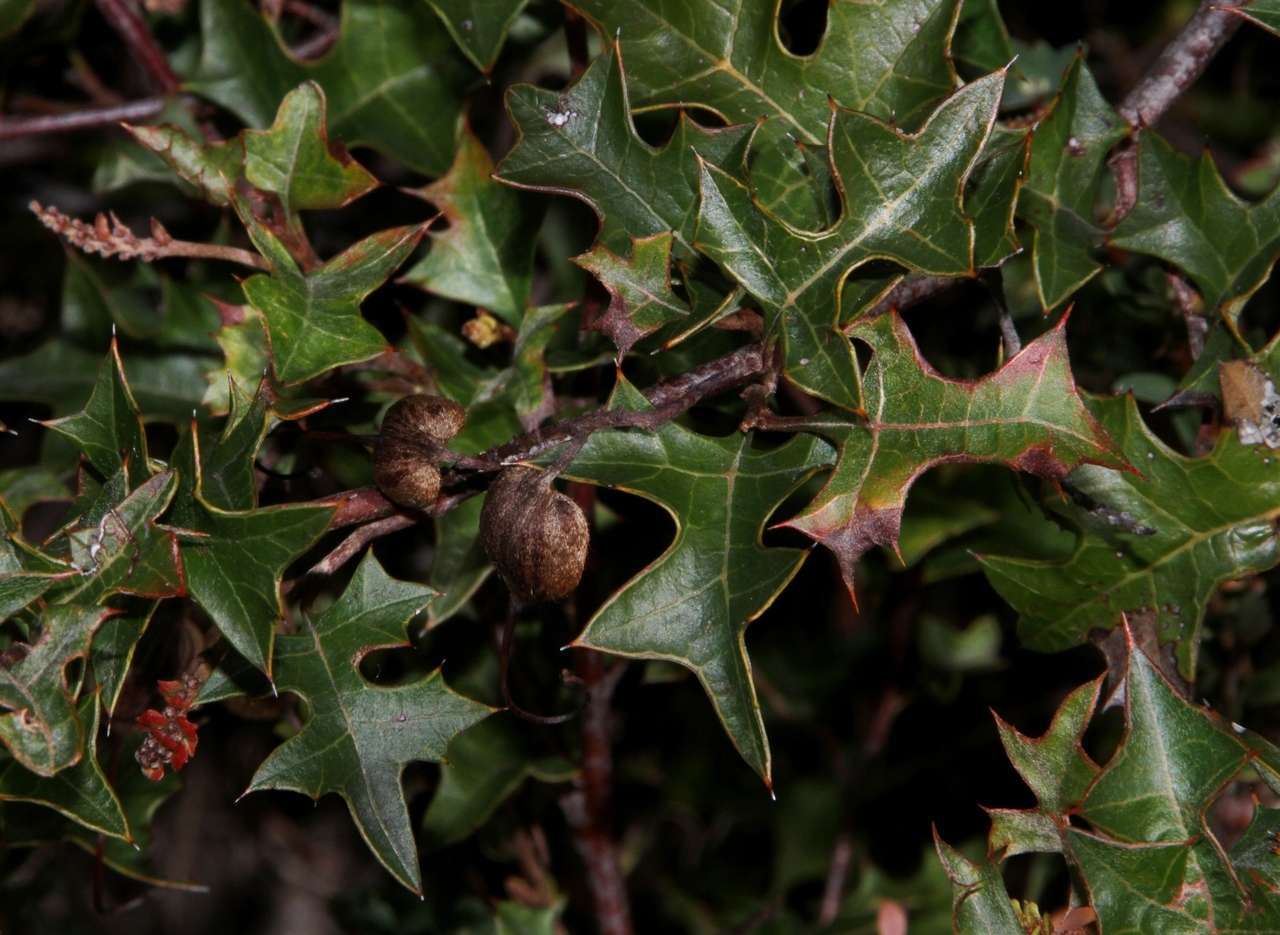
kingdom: Plantae
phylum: Tracheophyta
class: Magnoliopsida
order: Proteales
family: Proteaceae
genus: Grevillea
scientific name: Grevillea steiglitziana
